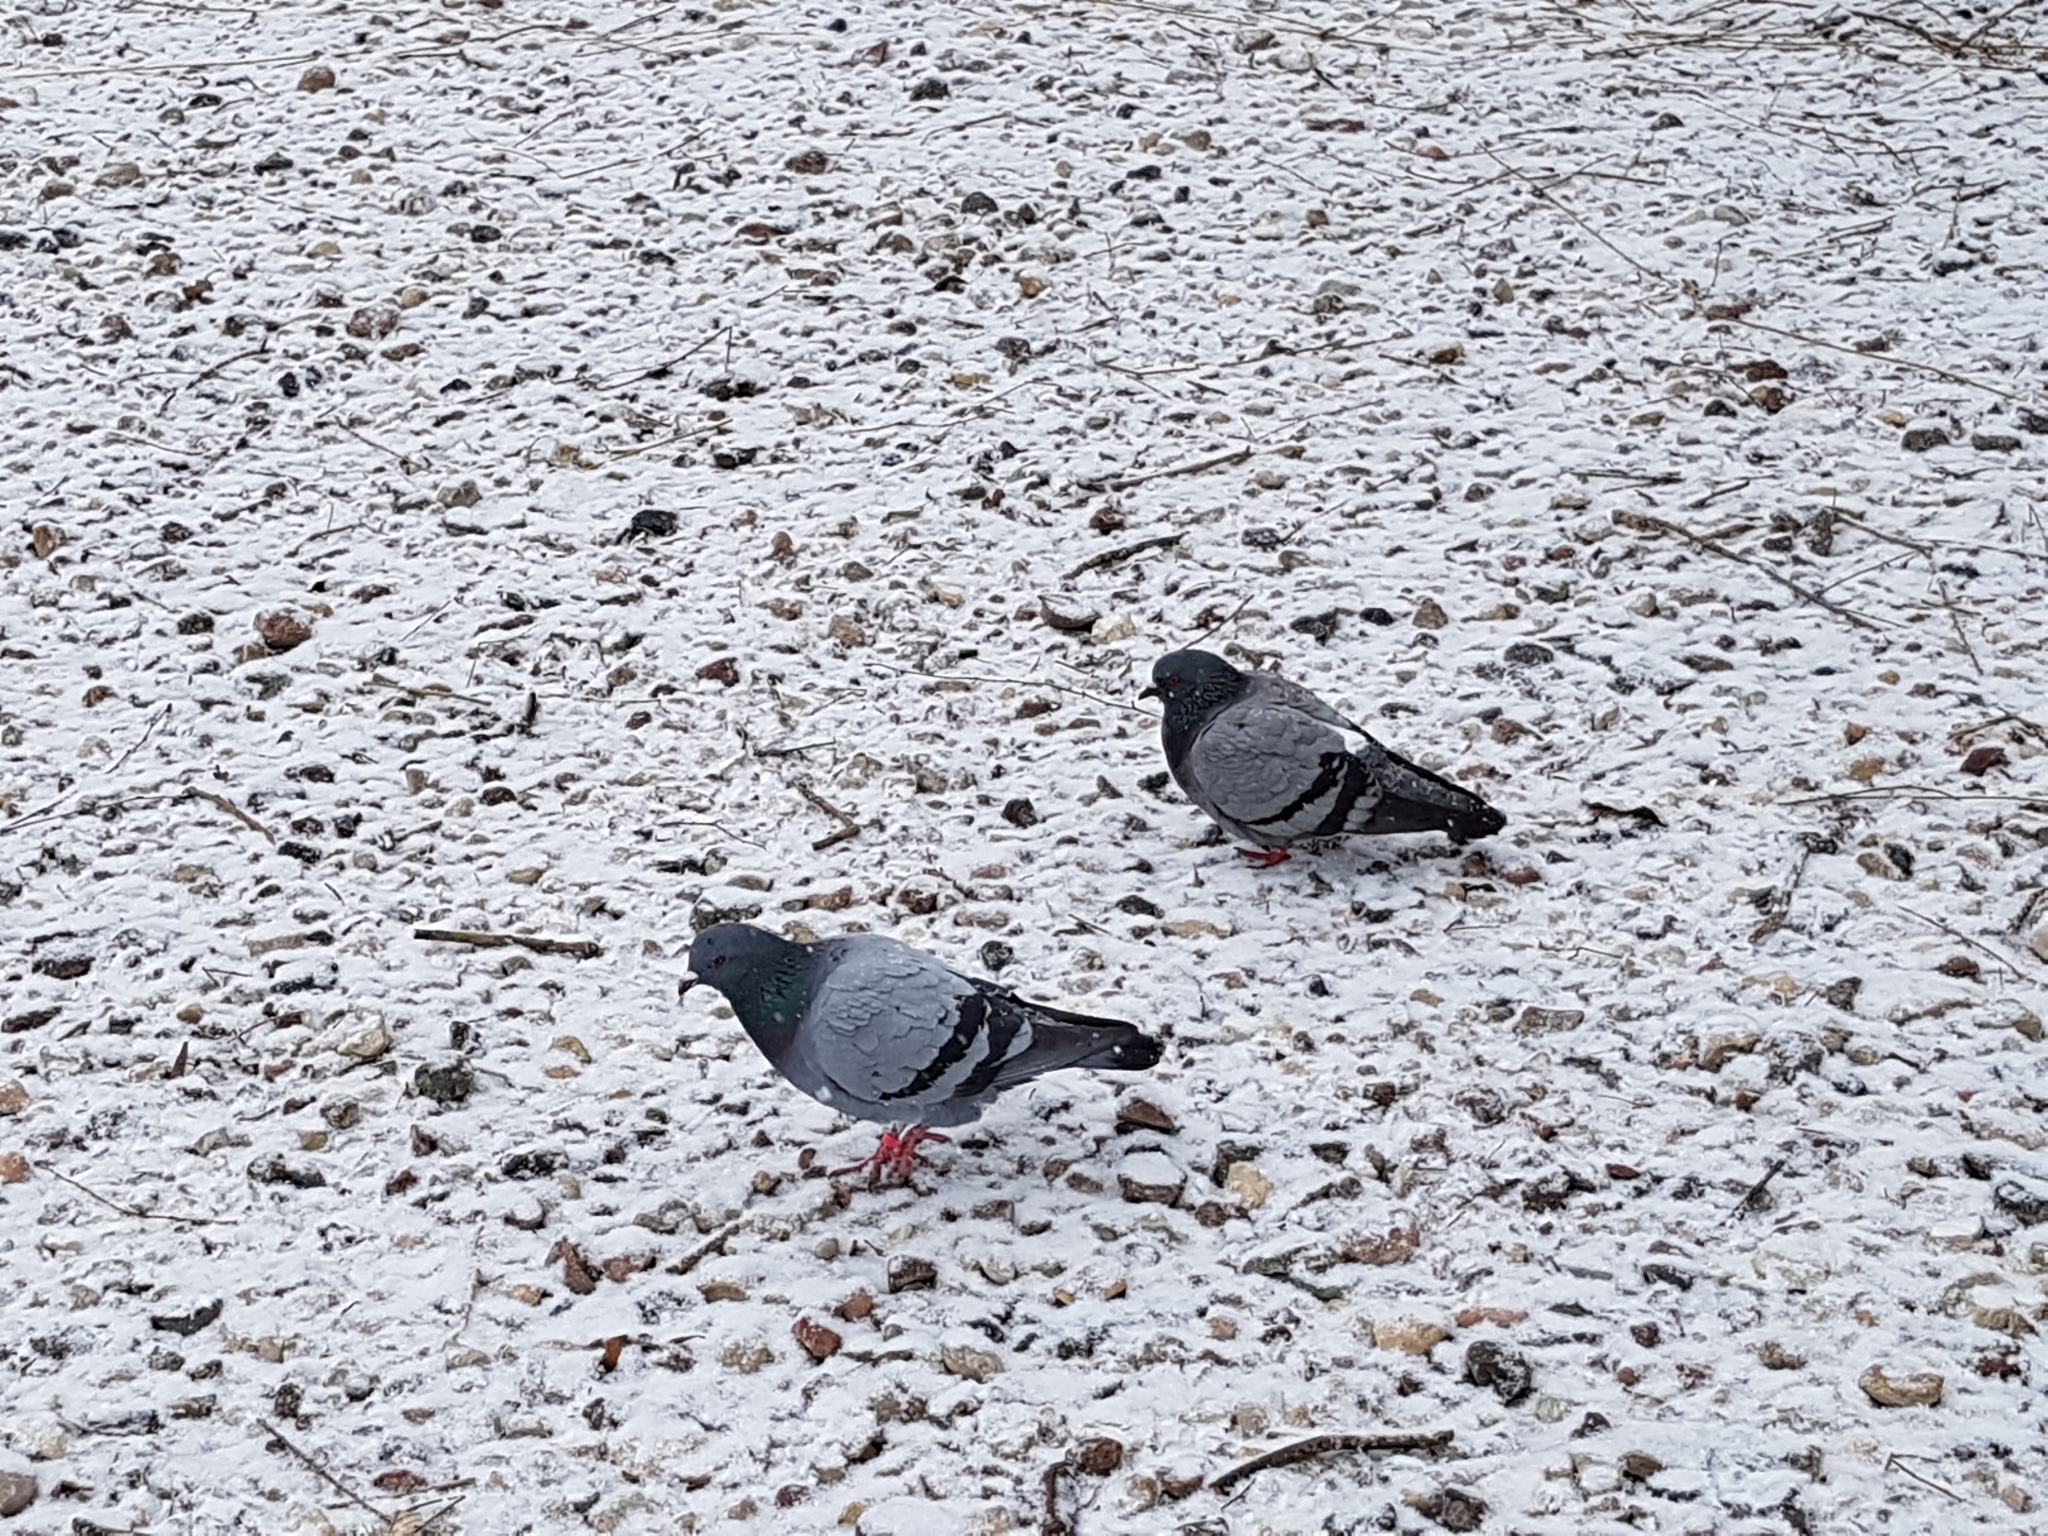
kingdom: Animalia
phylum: Chordata
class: Aves
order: Columbiformes
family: Columbidae
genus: Columba
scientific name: Columba livia
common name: Rock pigeon
